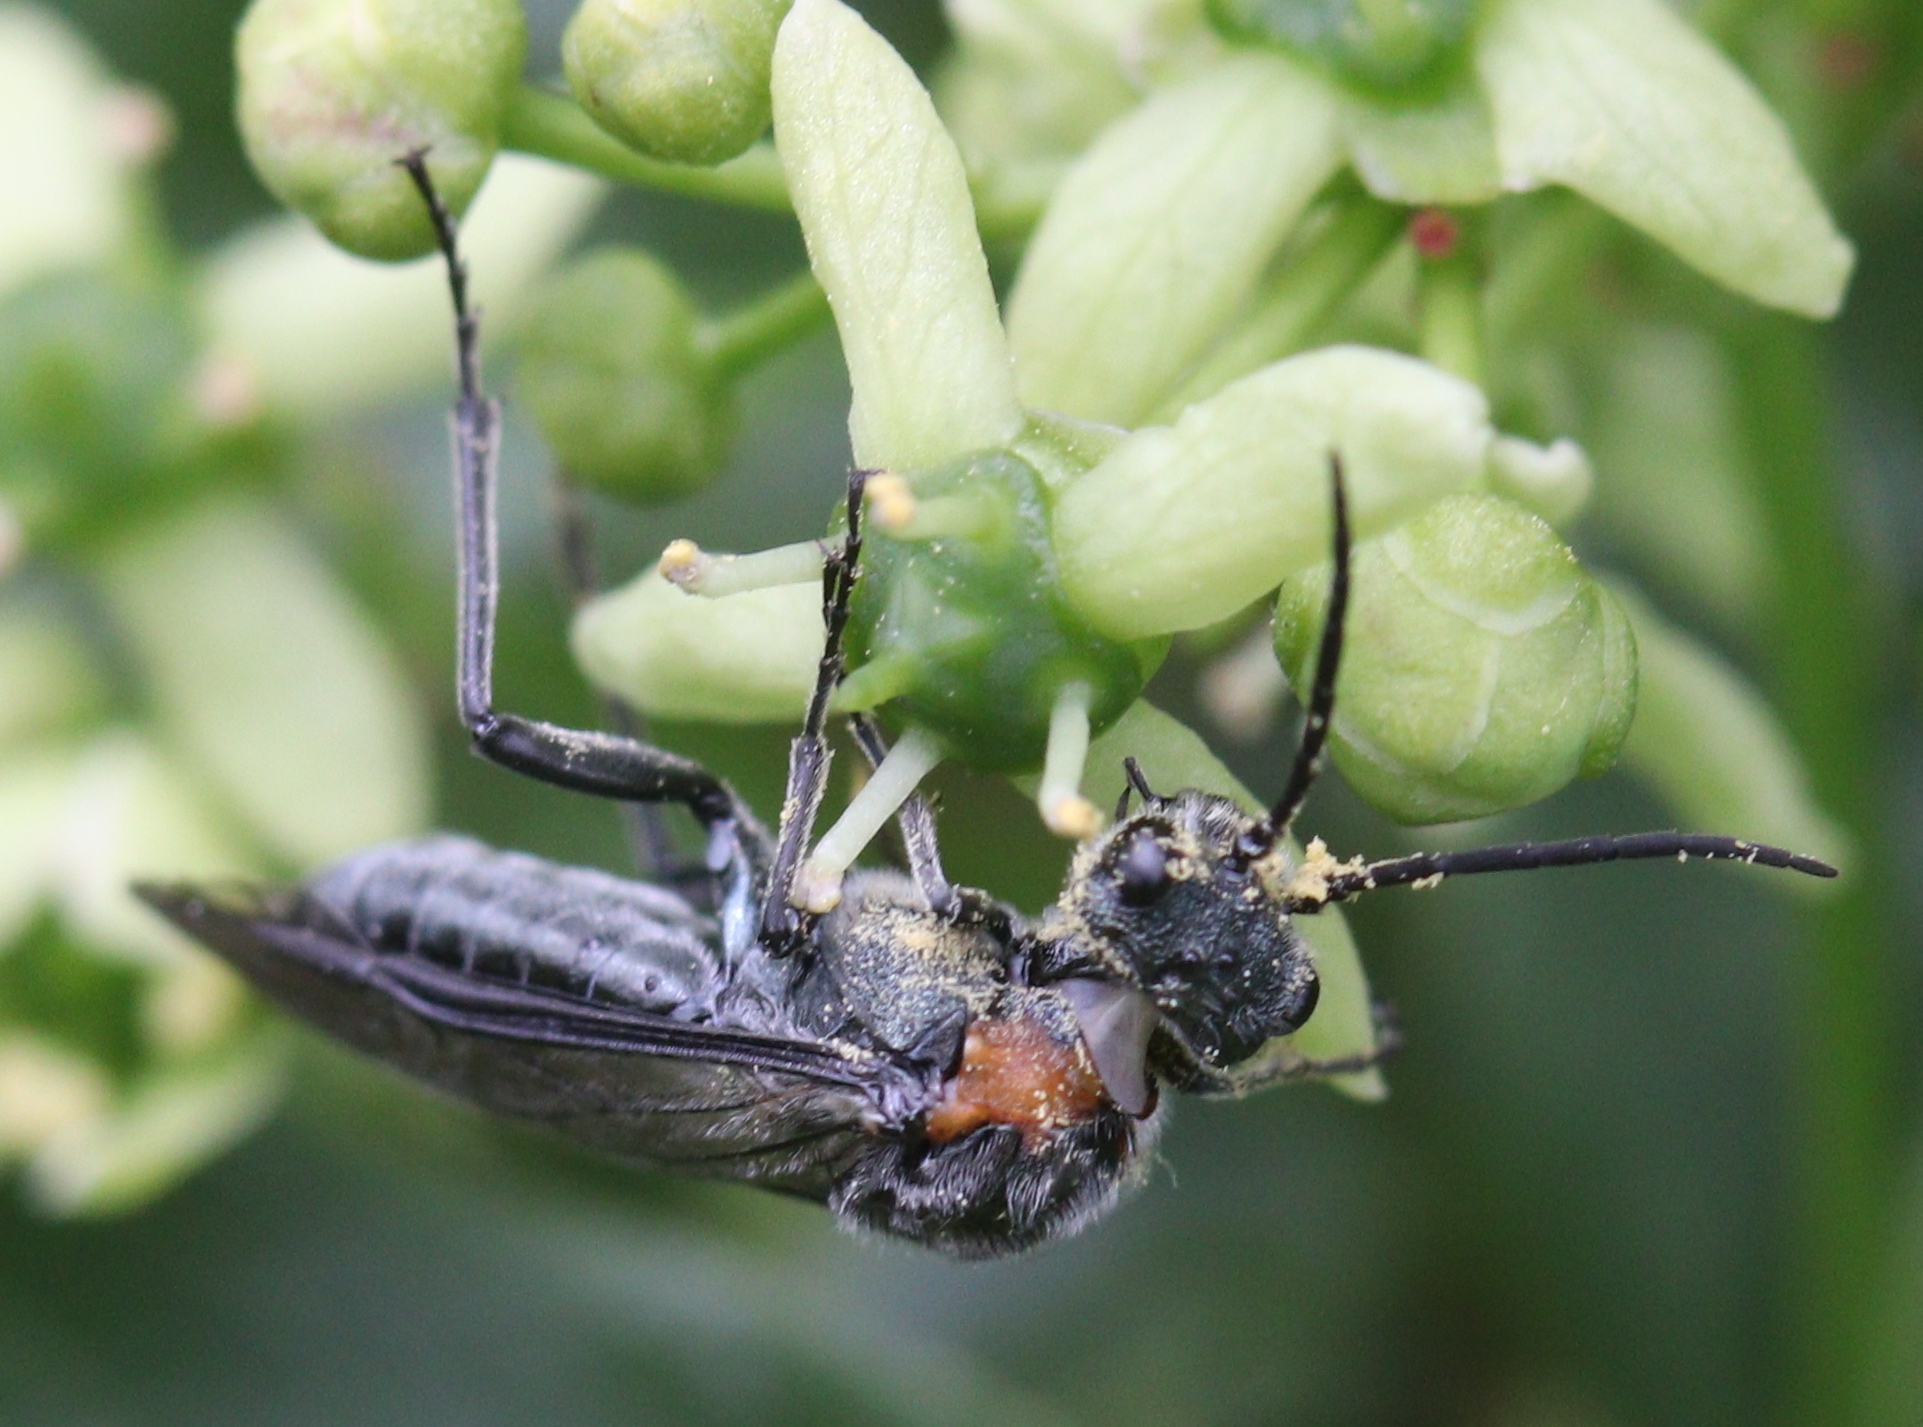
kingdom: Animalia
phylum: Arthropoda
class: Insecta
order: Hymenoptera
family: Tenthredinidae
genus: Dolerus
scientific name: Dolerus haematodes
